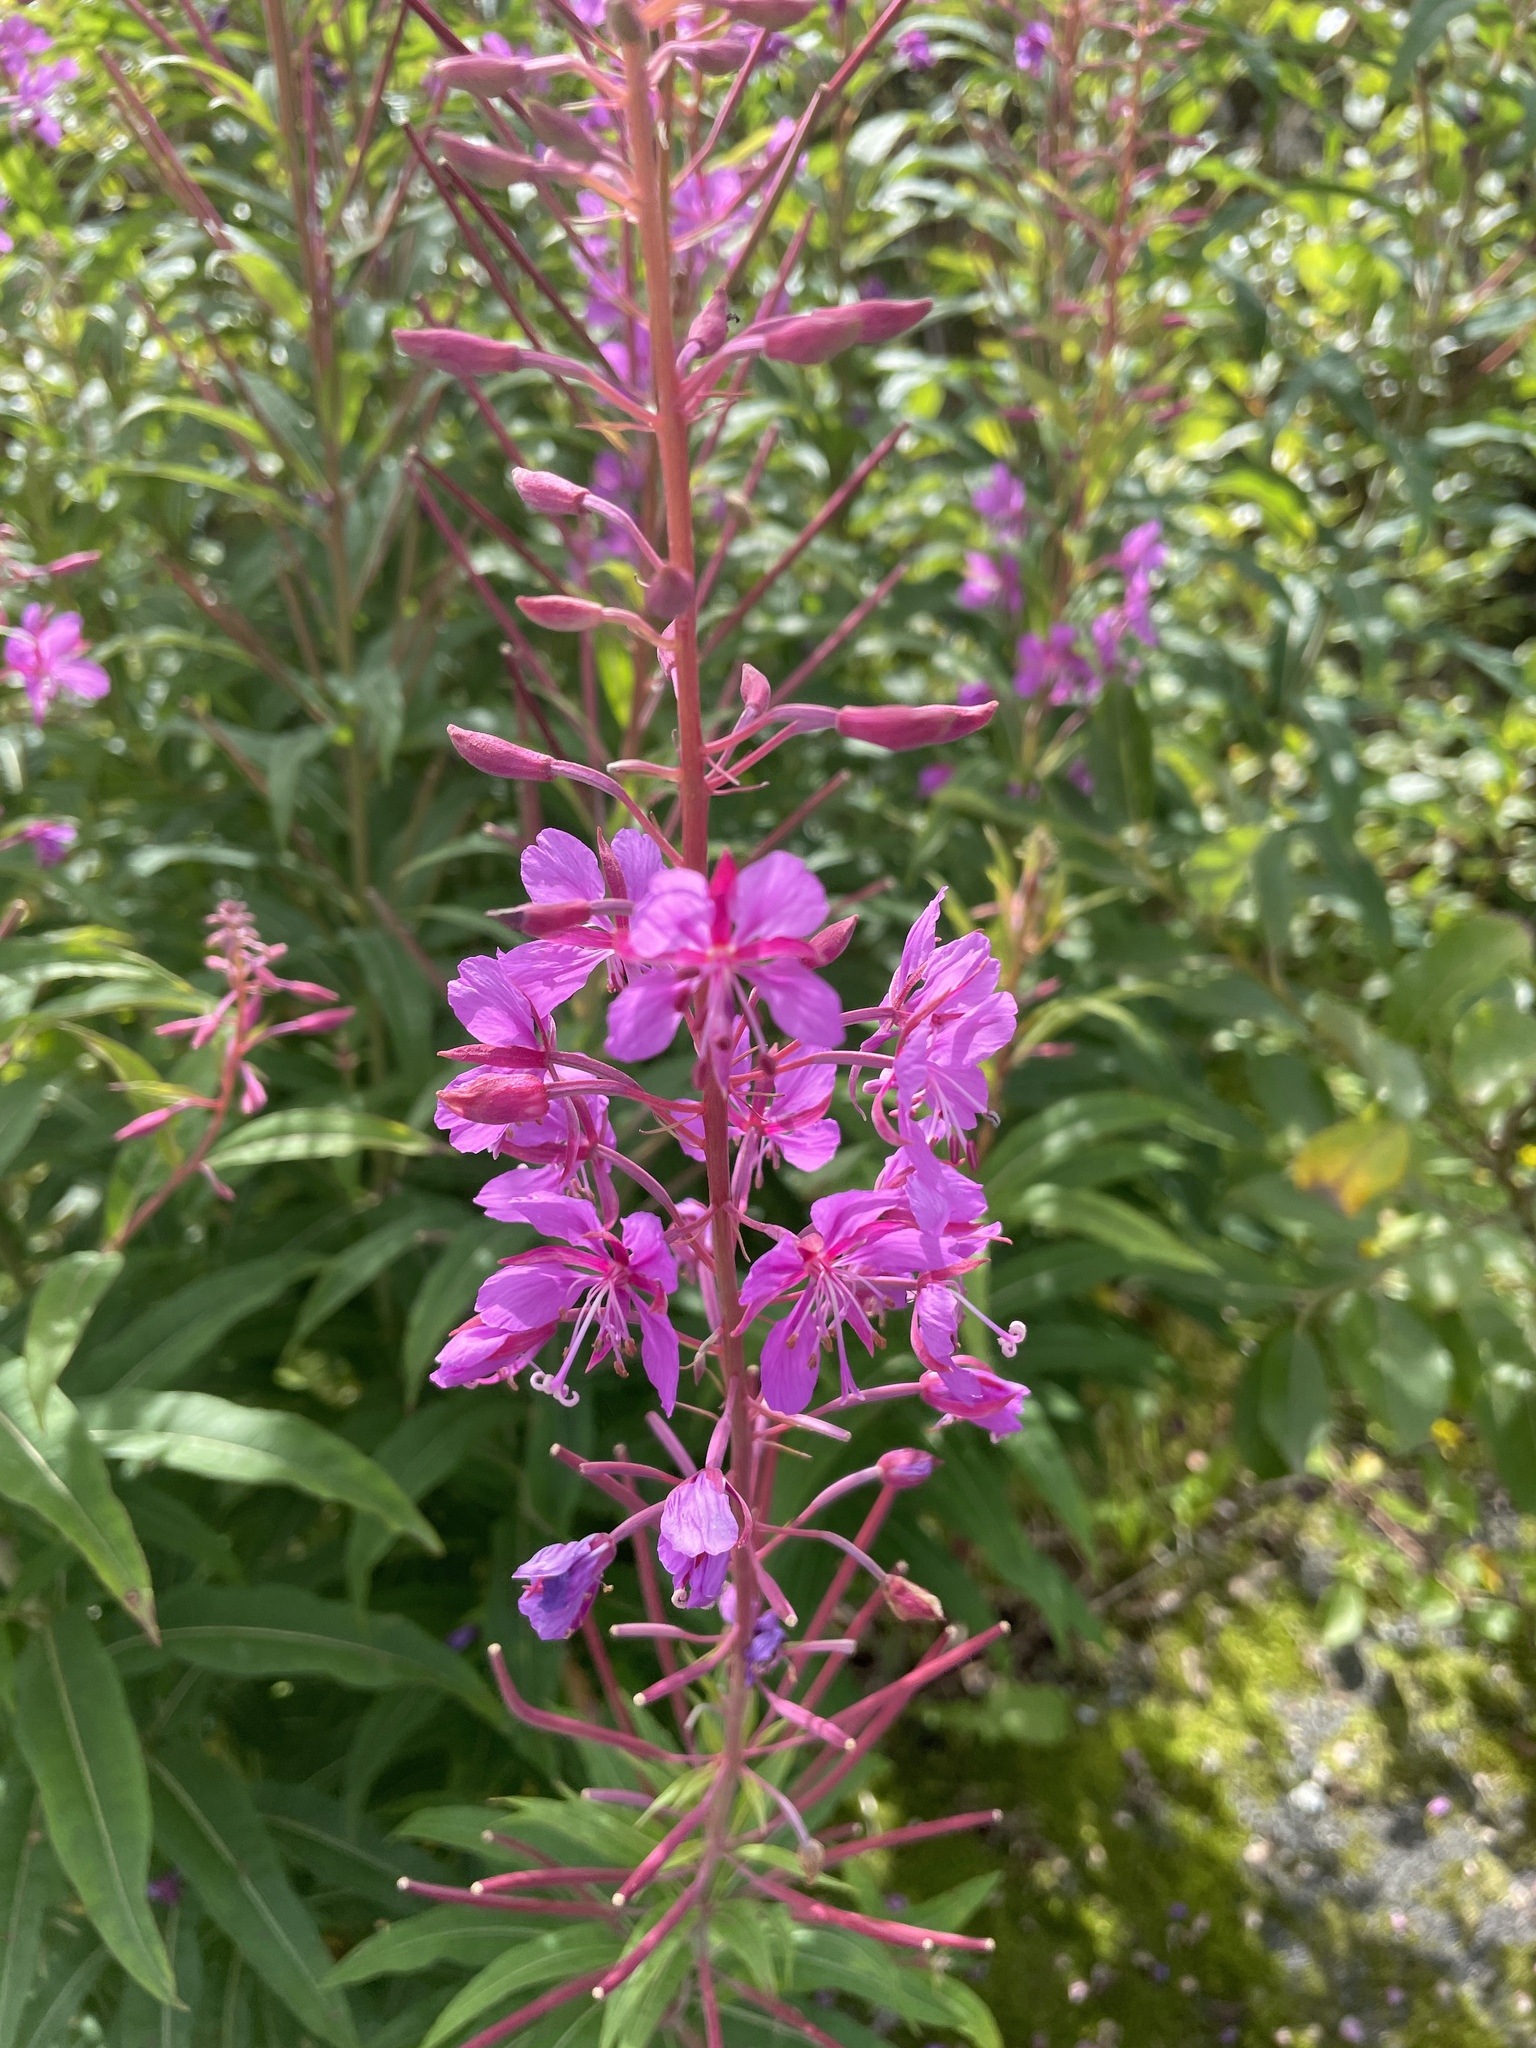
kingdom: Plantae
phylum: Tracheophyta
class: Magnoliopsida
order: Myrtales
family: Onagraceae
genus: Chamaenerion
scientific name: Chamaenerion angustifolium
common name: Fireweed
